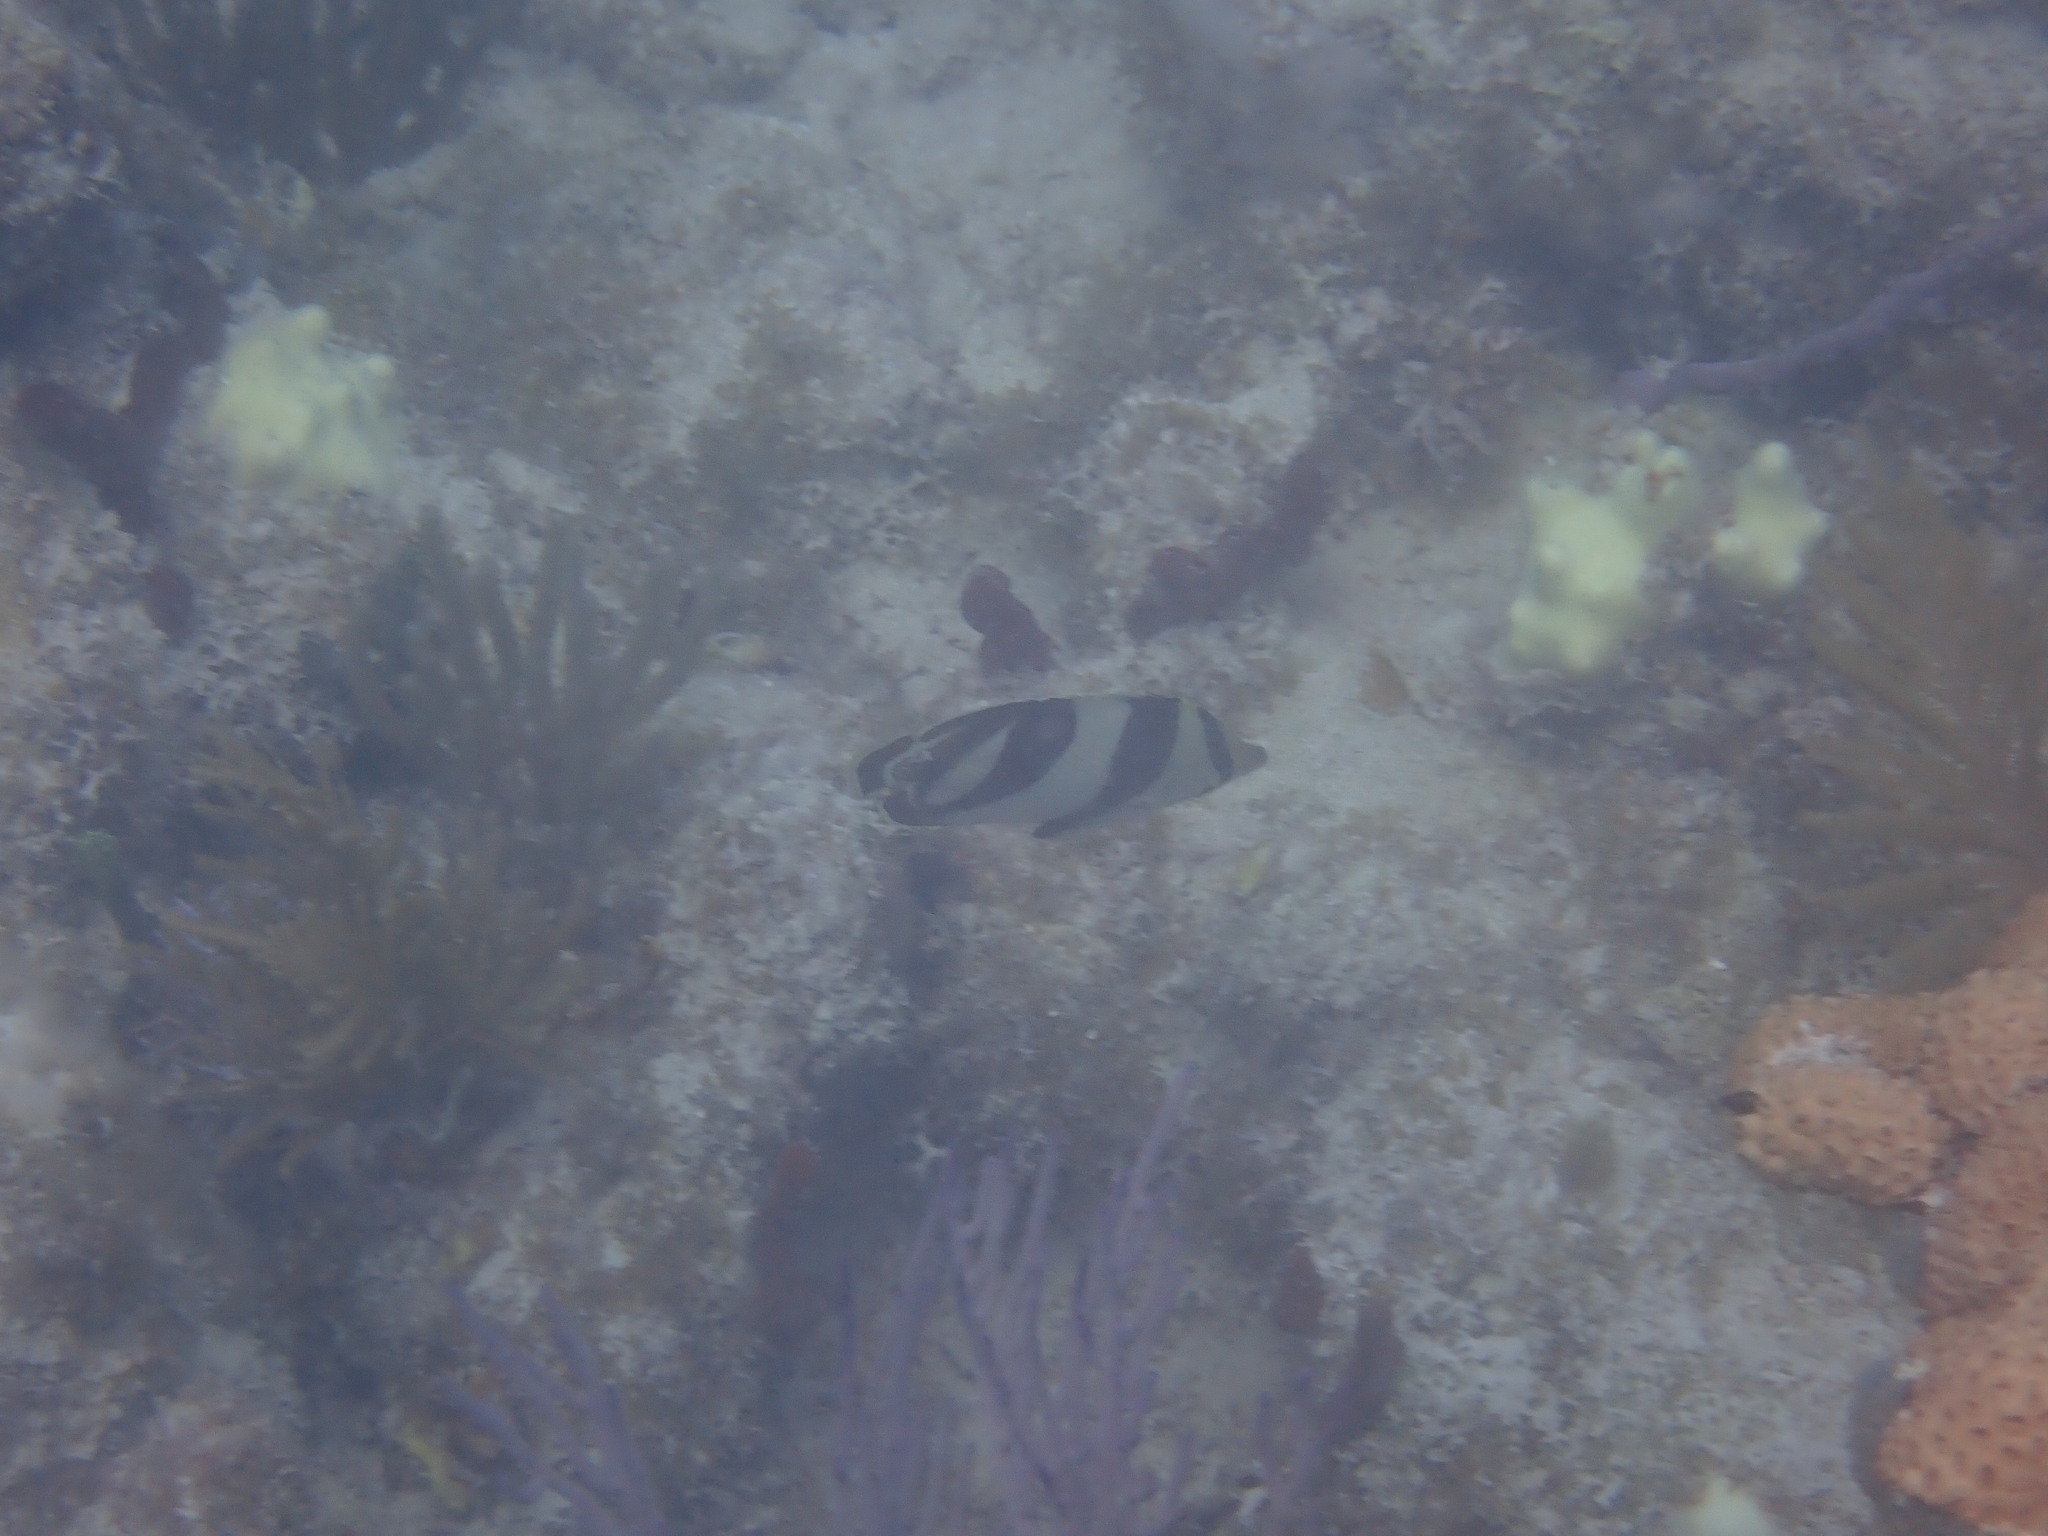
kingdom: Animalia
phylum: Chordata
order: Perciformes
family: Chaetodontidae
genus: Chaetodon
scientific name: Chaetodon striatus
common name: Banded butterflyfish
